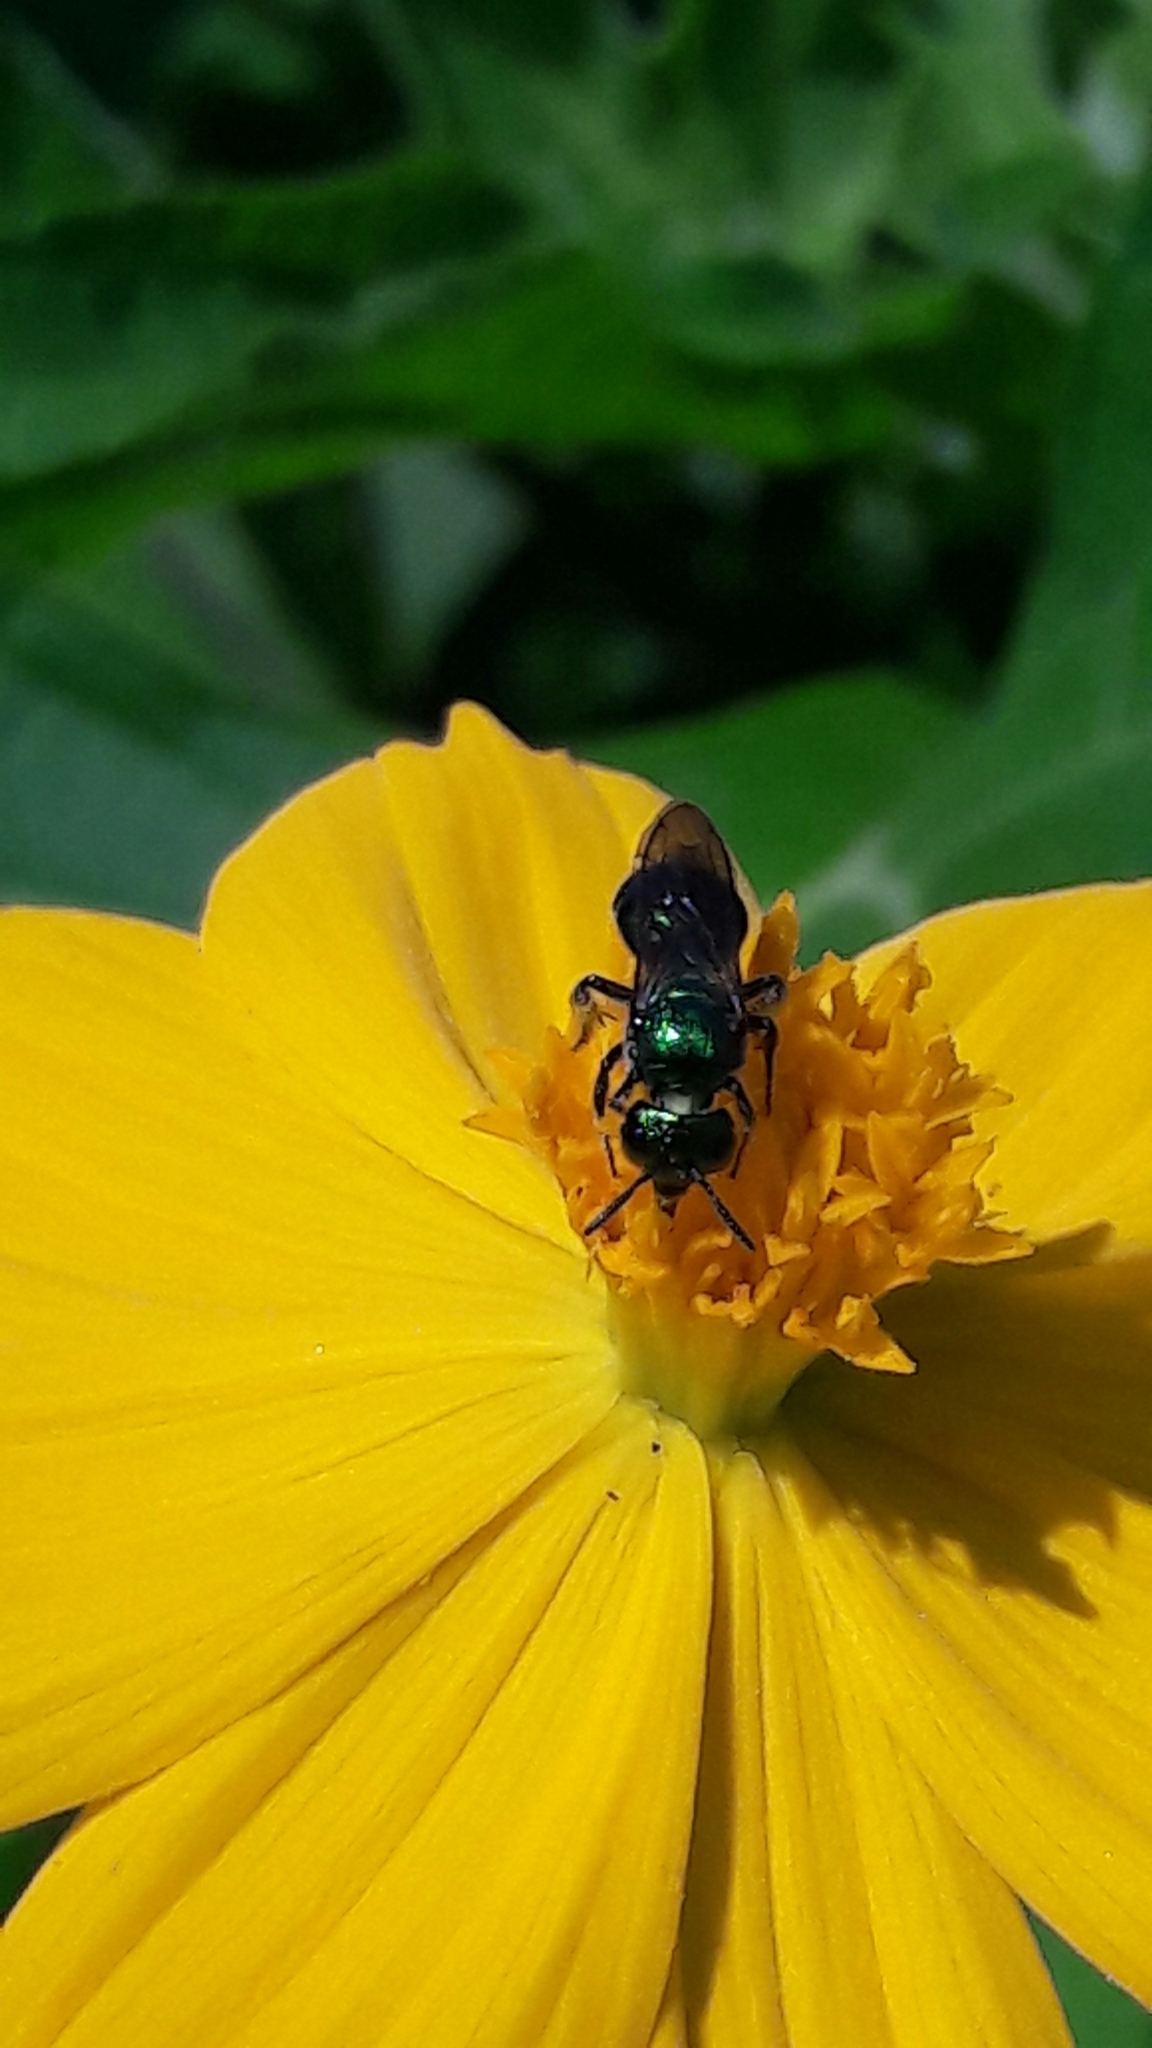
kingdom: Animalia
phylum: Arthropoda
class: Insecta
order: Hymenoptera
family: Apidae
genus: Ceratina
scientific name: Ceratina chloris
